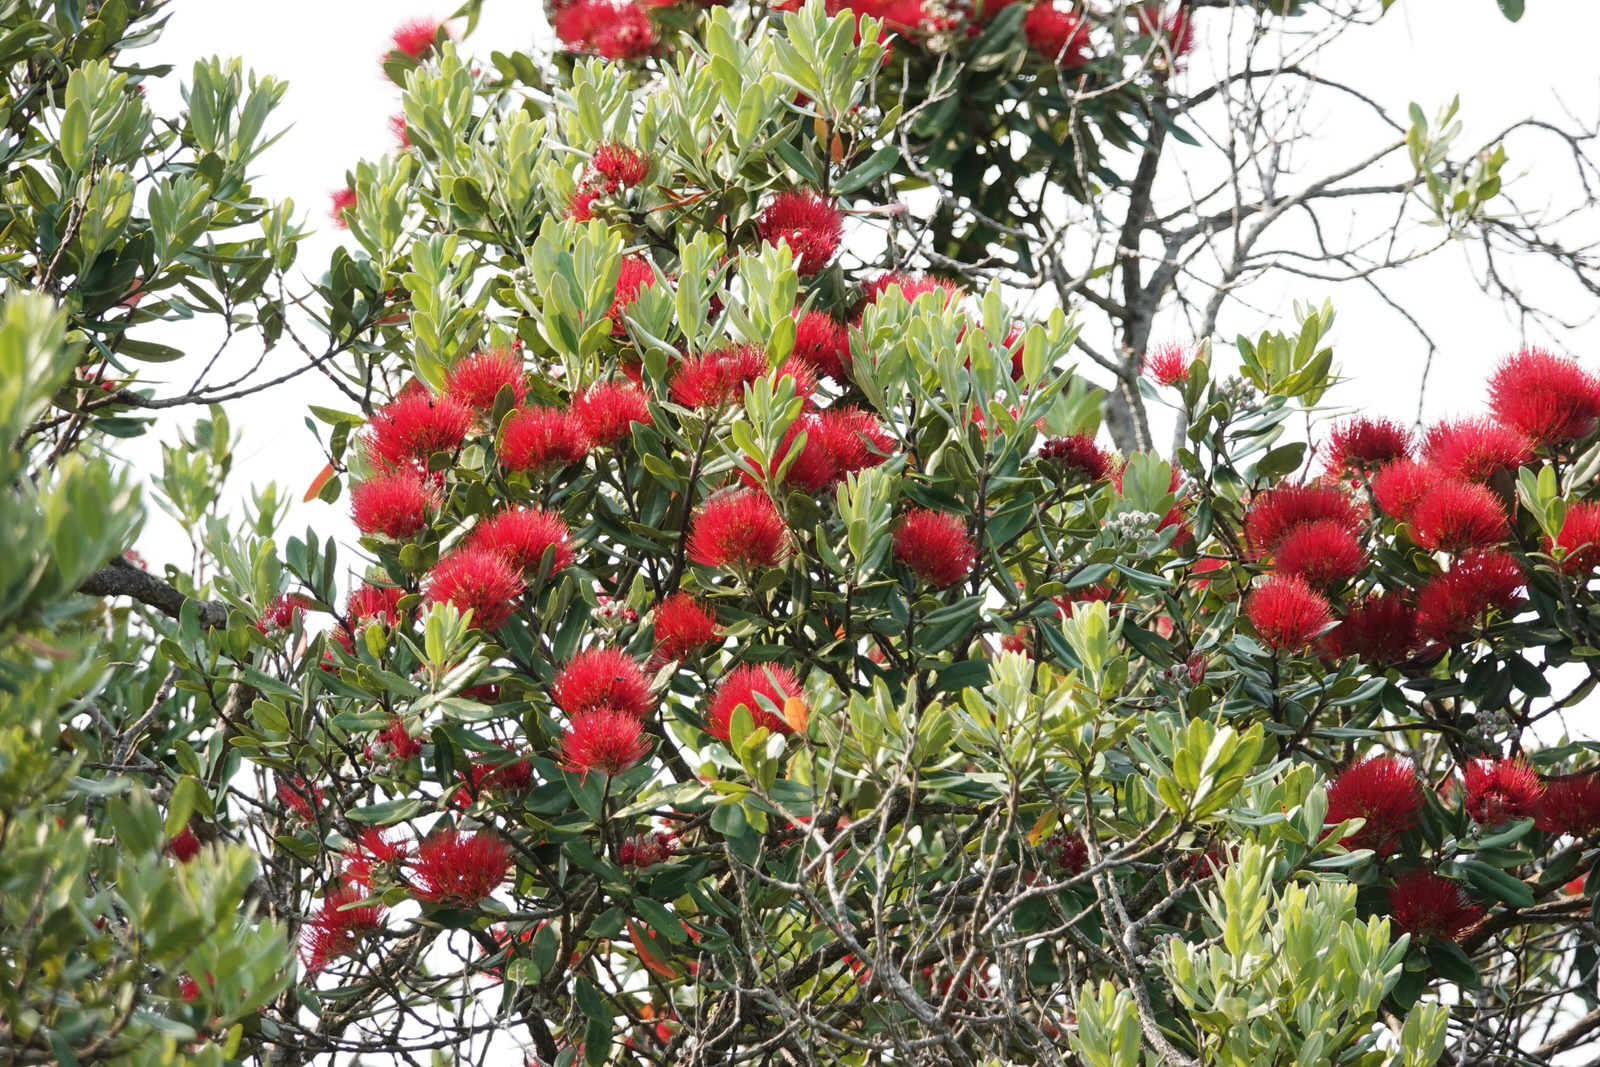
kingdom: Plantae
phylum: Tracheophyta
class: Magnoliopsida
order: Myrtales
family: Myrtaceae
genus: Metrosideros
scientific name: Metrosideros excelsa
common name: New zealand christmastree
